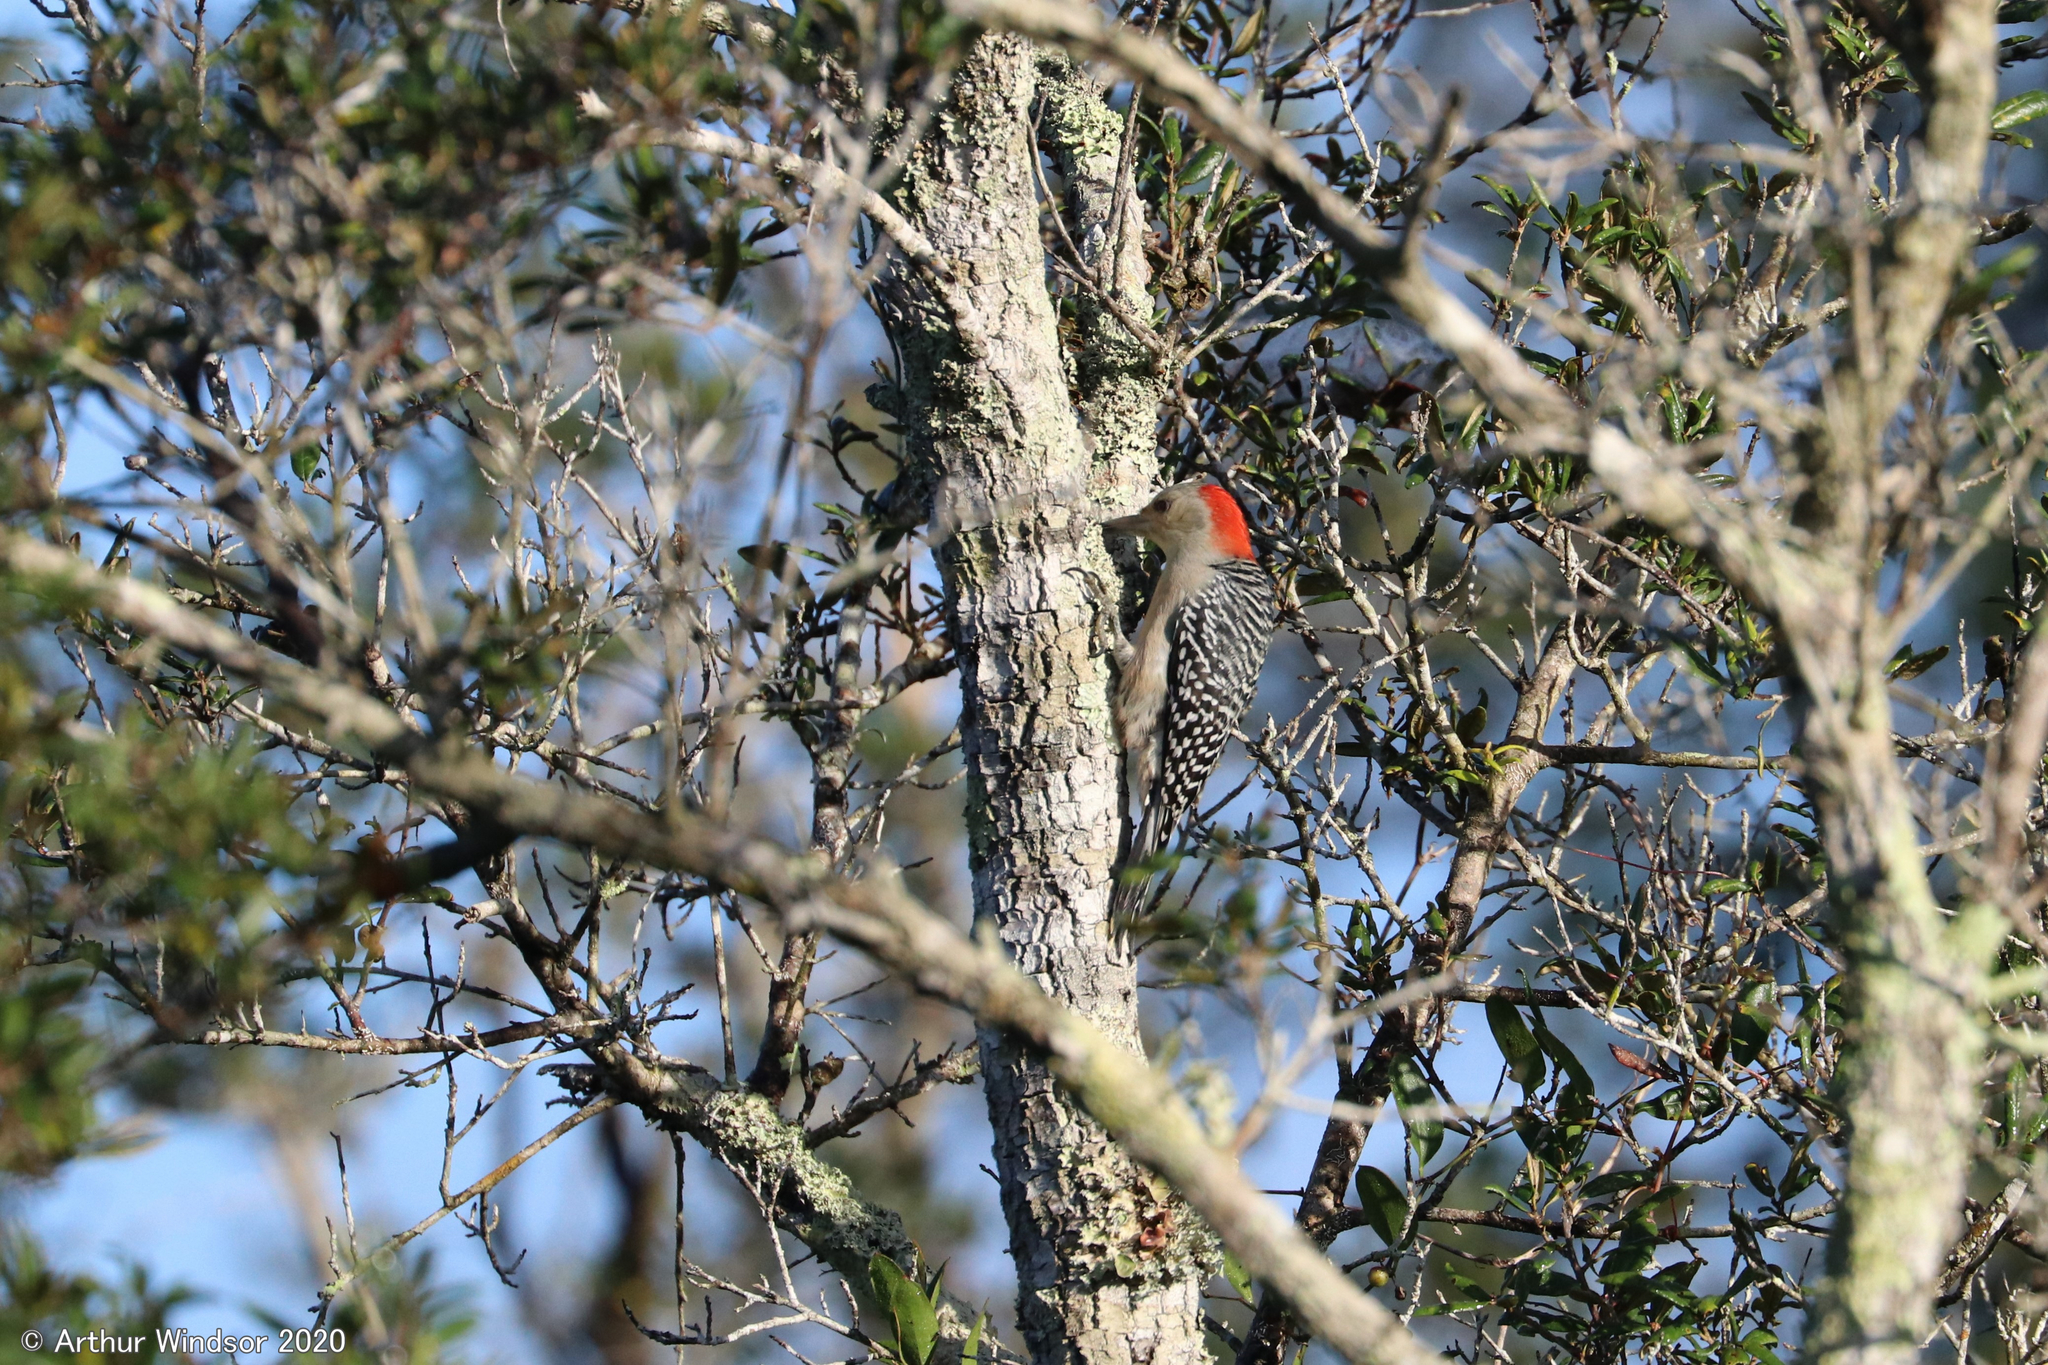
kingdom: Animalia
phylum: Chordata
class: Aves
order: Piciformes
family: Picidae
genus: Melanerpes
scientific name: Melanerpes carolinus
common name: Red-bellied woodpecker
